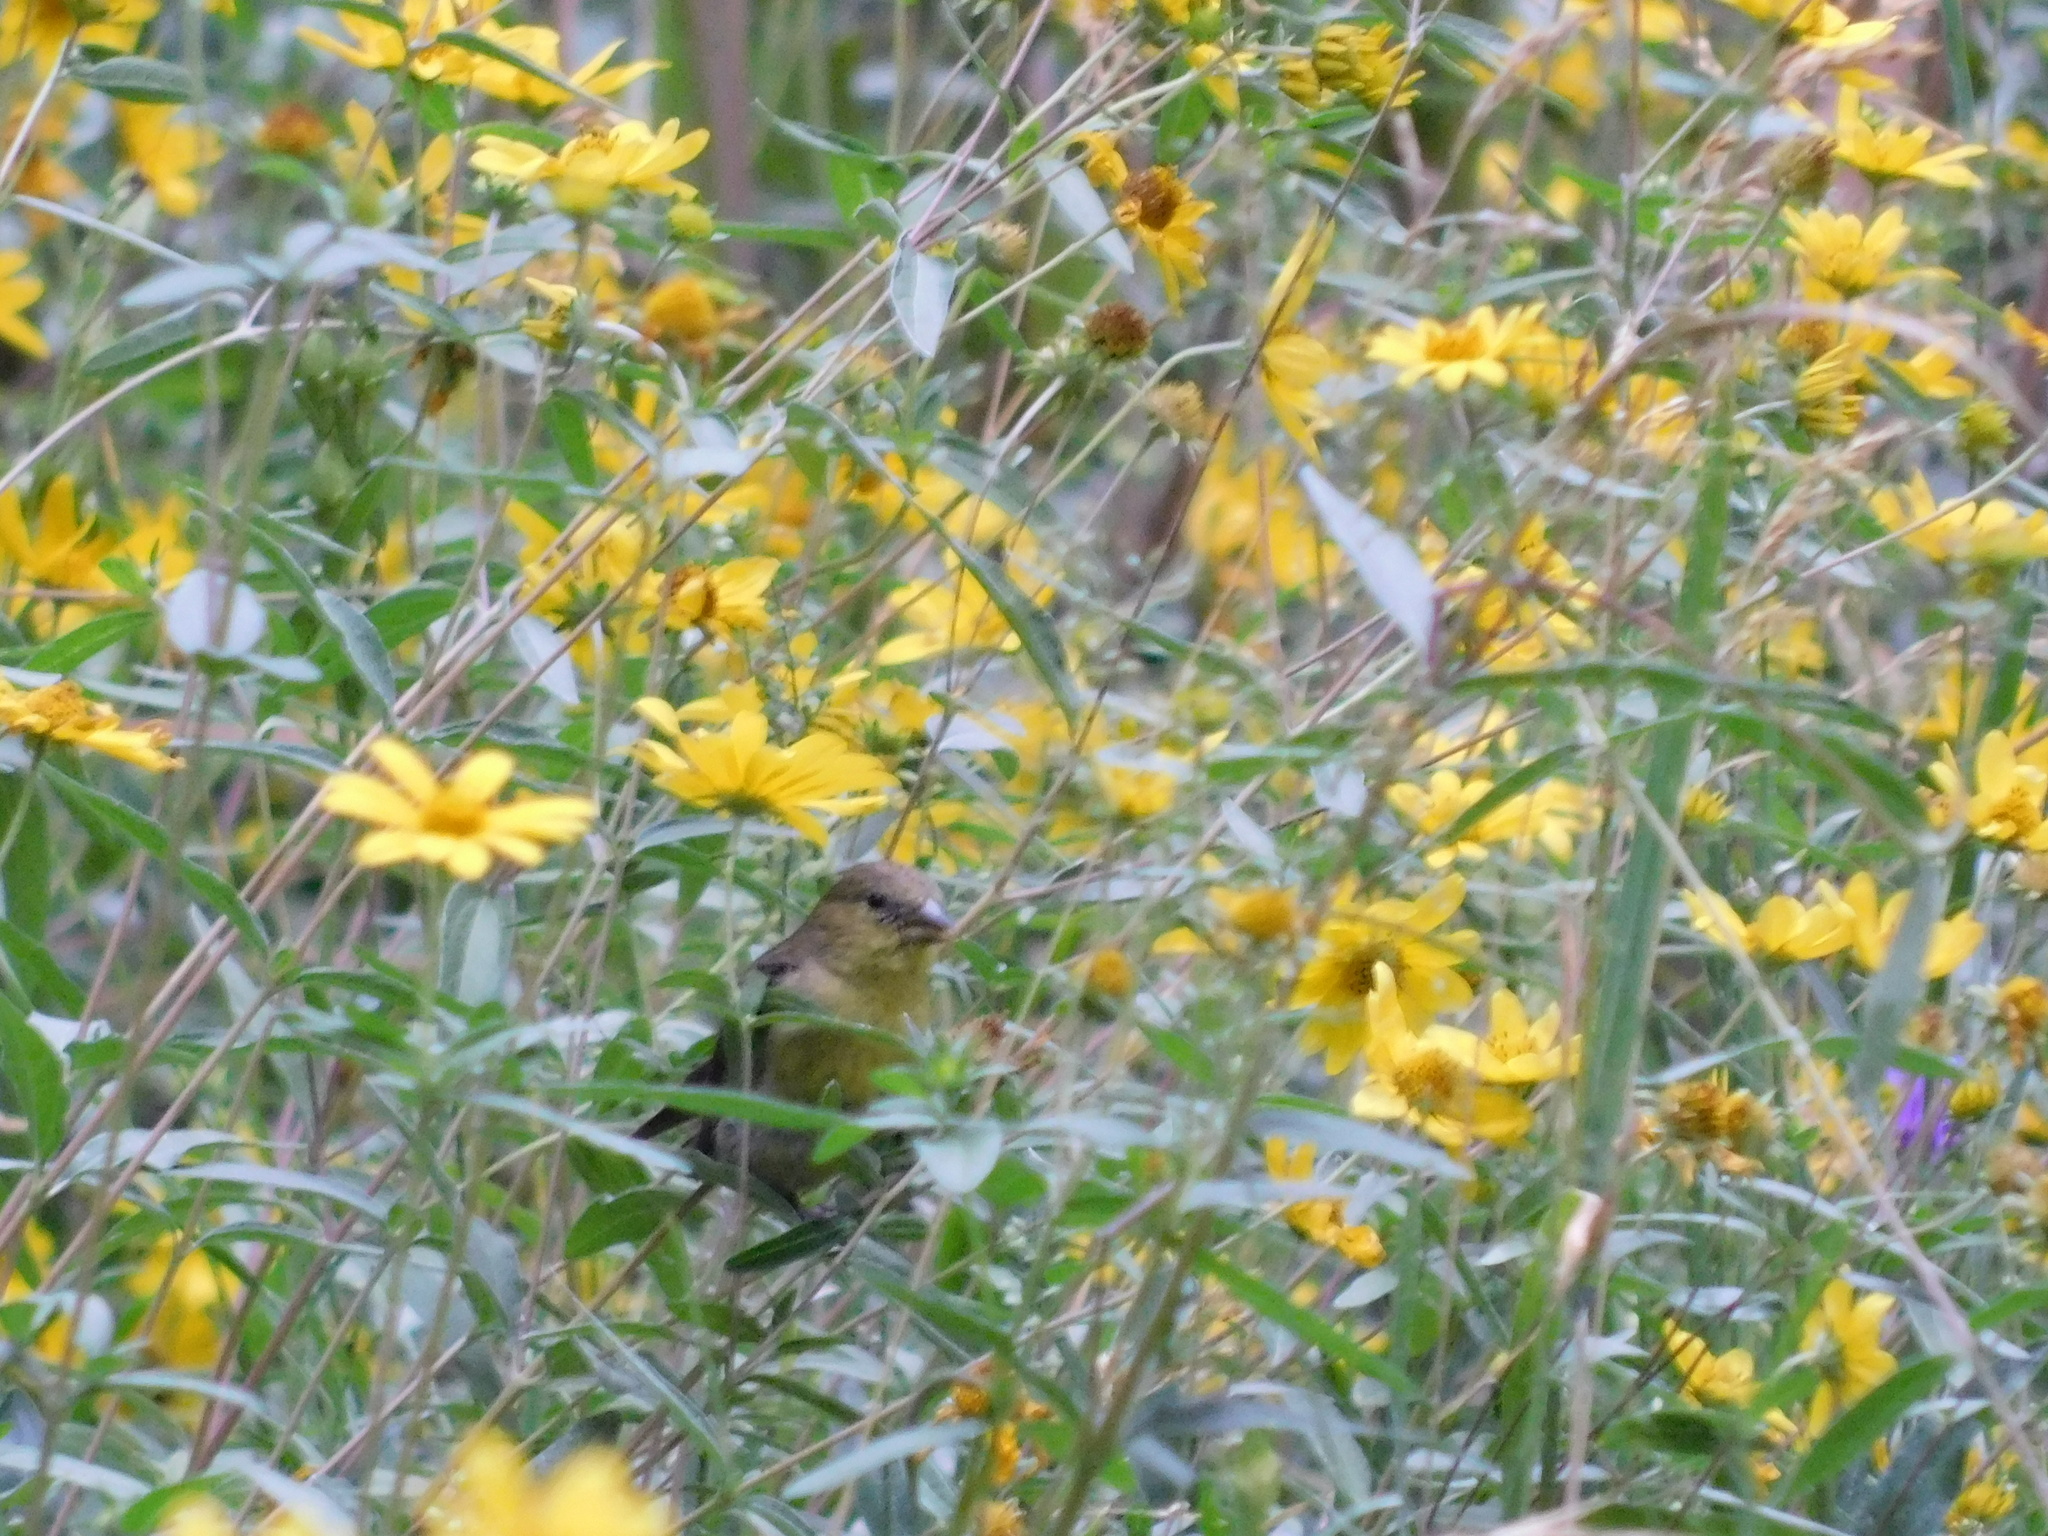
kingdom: Animalia
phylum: Chordata
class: Aves
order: Passeriformes
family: Fringillidae
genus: Spinus
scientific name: Spinus psaltria
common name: Lesser goldfinch
